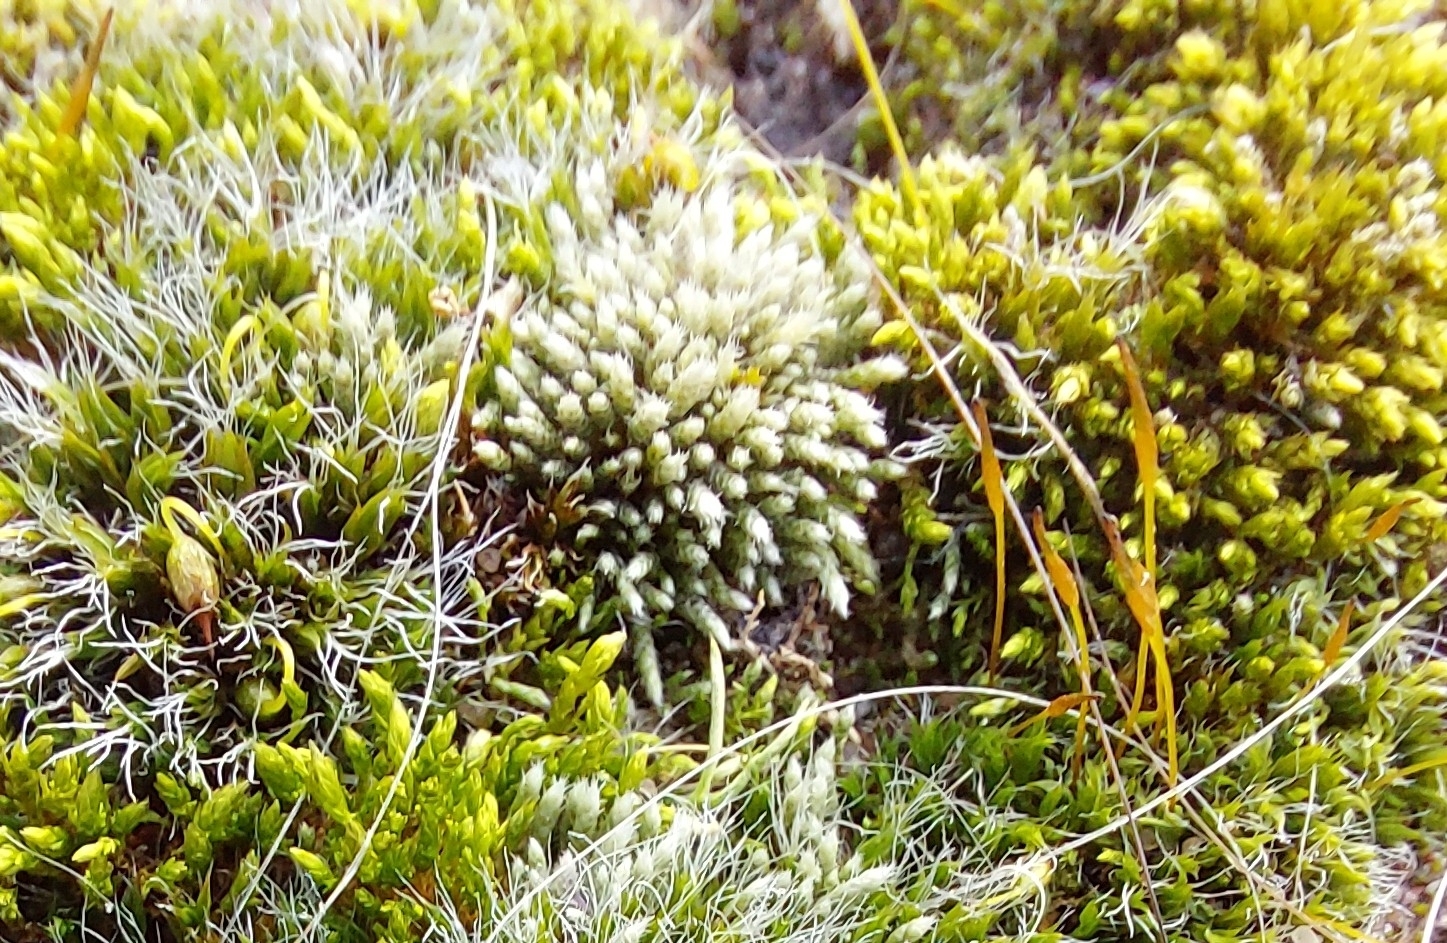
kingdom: Plantae
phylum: Bryophyta
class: Bryopsida
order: Bryales
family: Bryaceae
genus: Bryum
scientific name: Bryum argenteum
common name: Silver-moss
